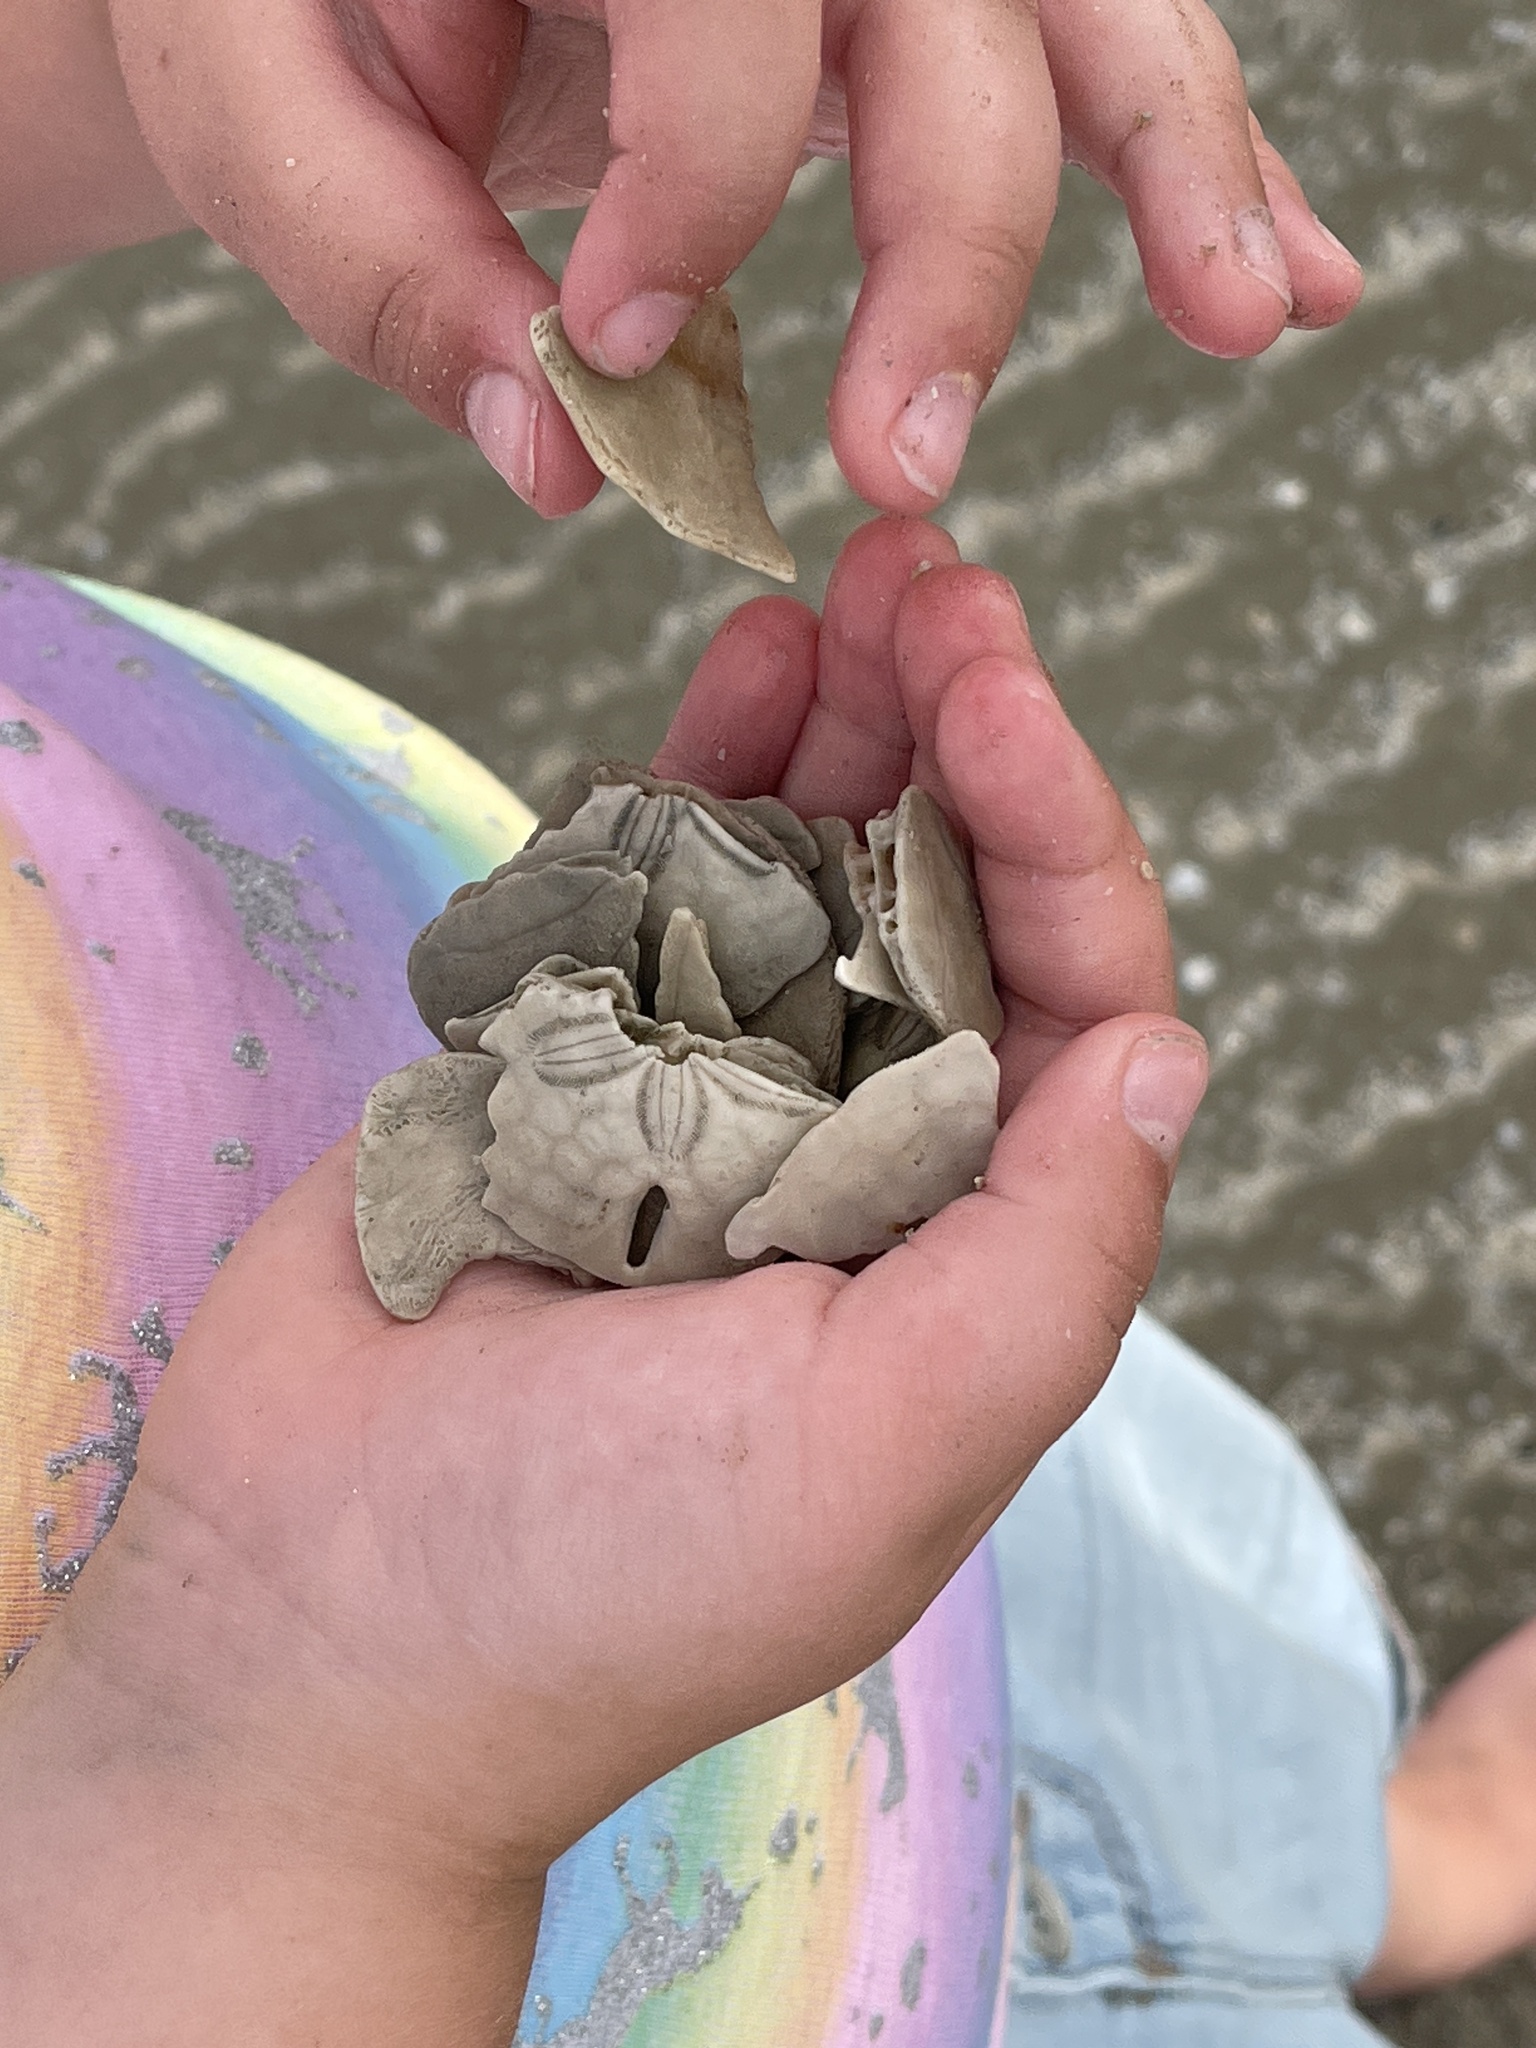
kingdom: Animalia
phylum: Echinodermata
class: Echinoidea
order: Echinolampadacea
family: Mellitidae
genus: Mellita
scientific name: Mellita quinquiesperforata
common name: Sand dollar
